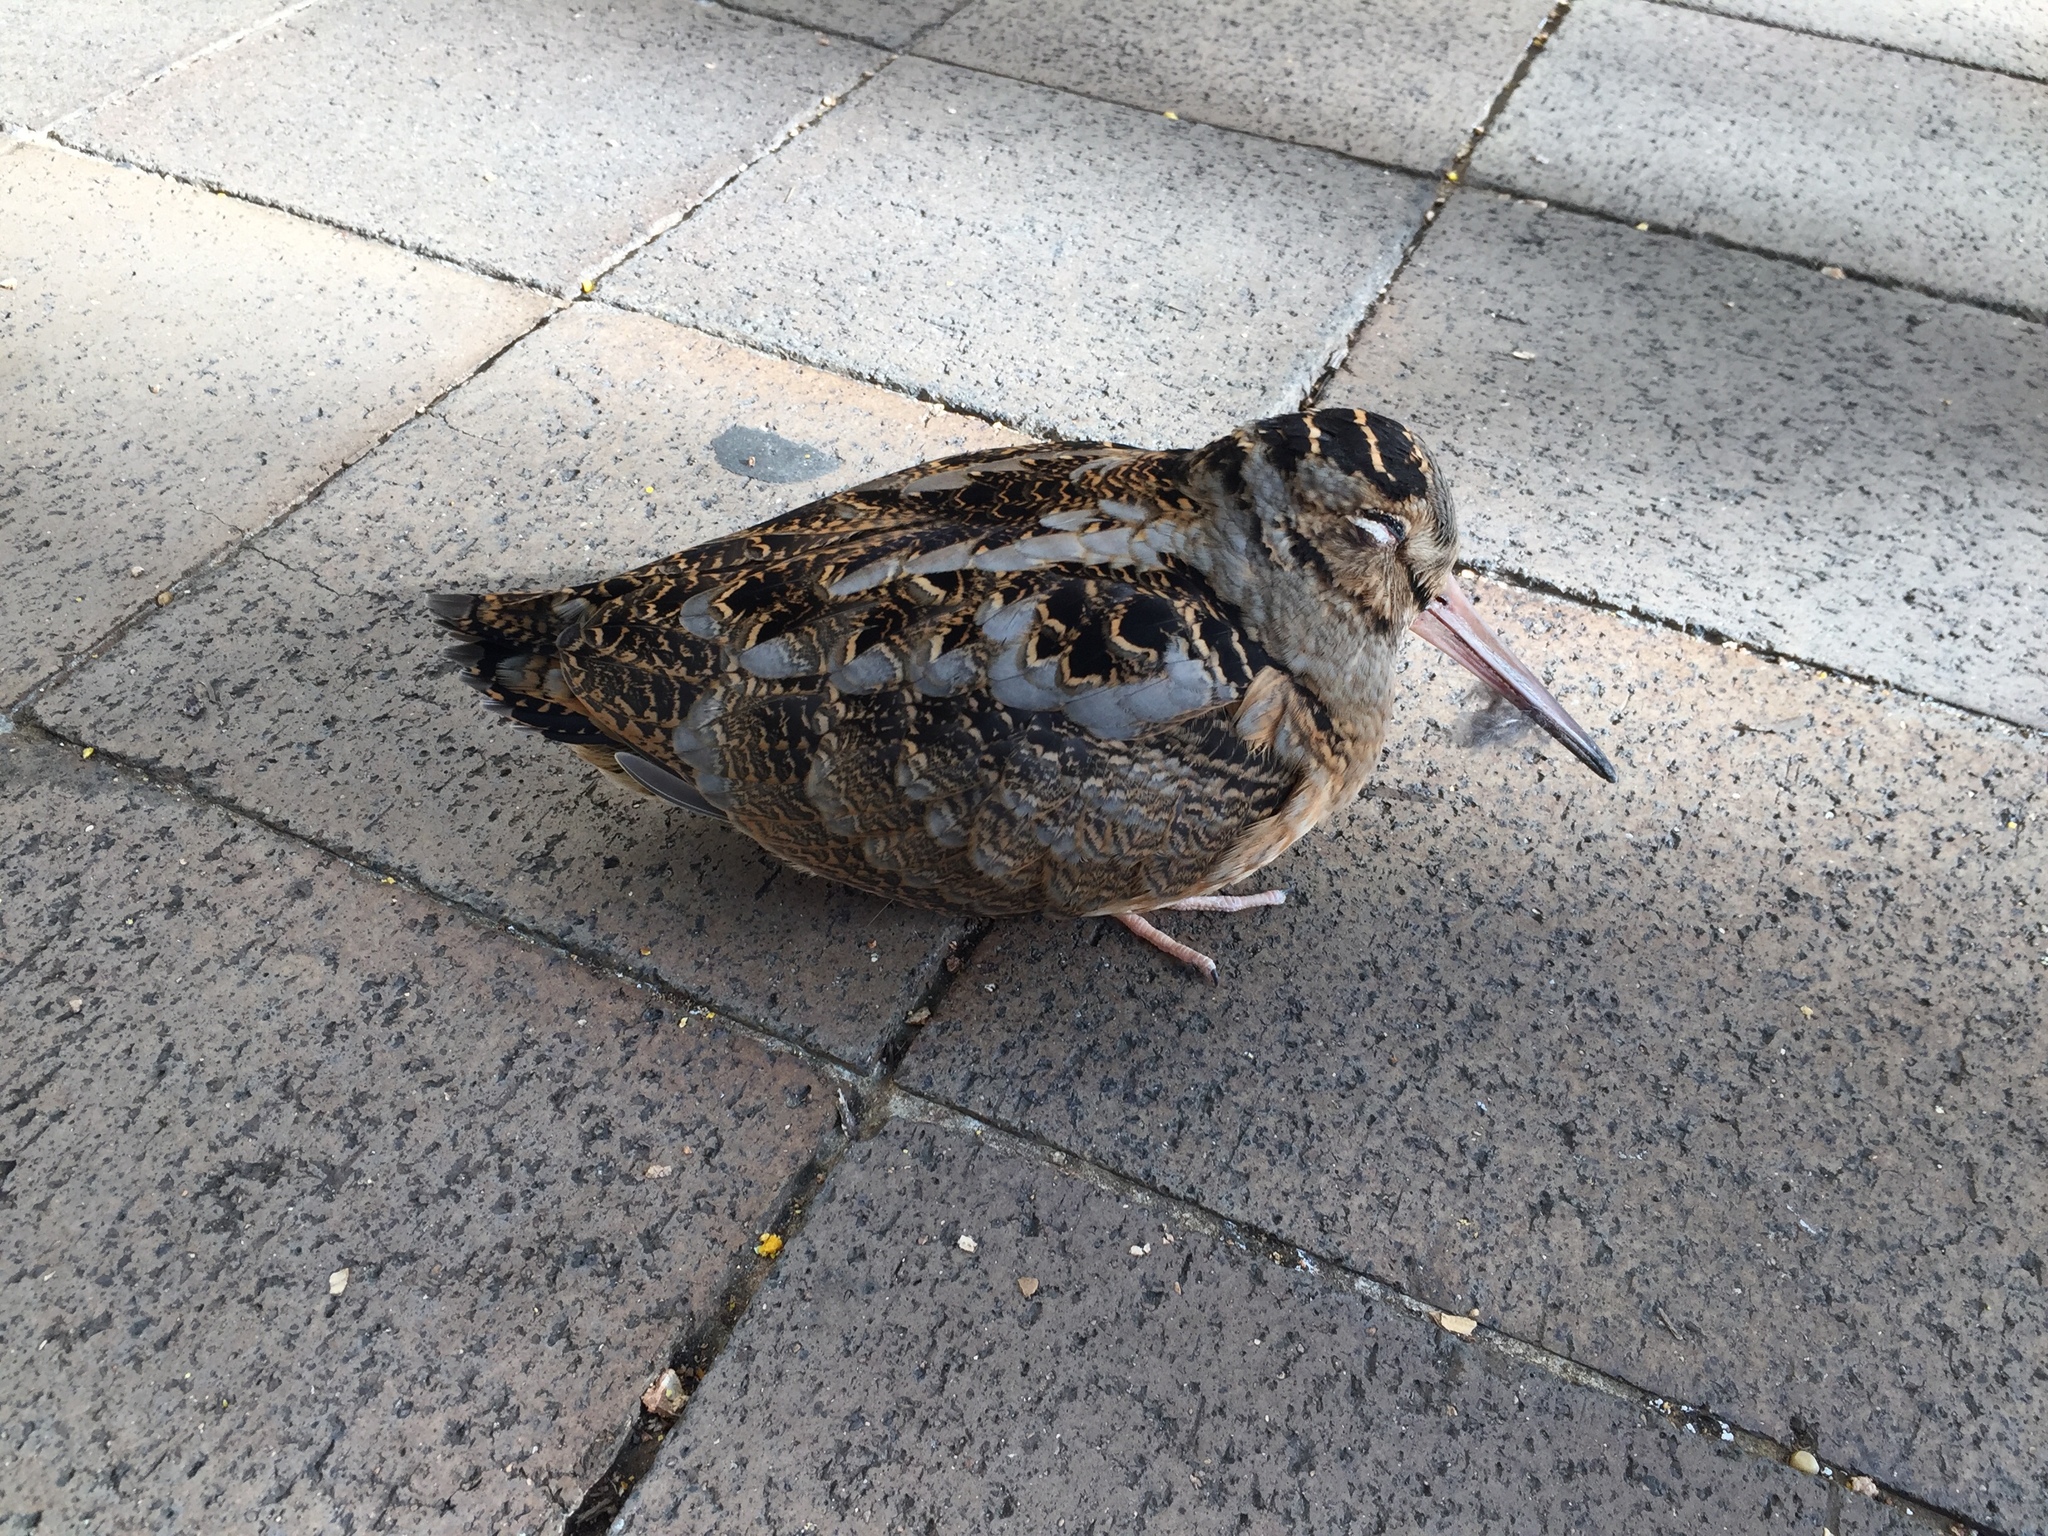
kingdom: Animalia
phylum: Chordata
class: Aves
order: Charadriiformes
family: Scolopacidae
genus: Scolopax
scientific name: Scolopax minor
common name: American woodcock
